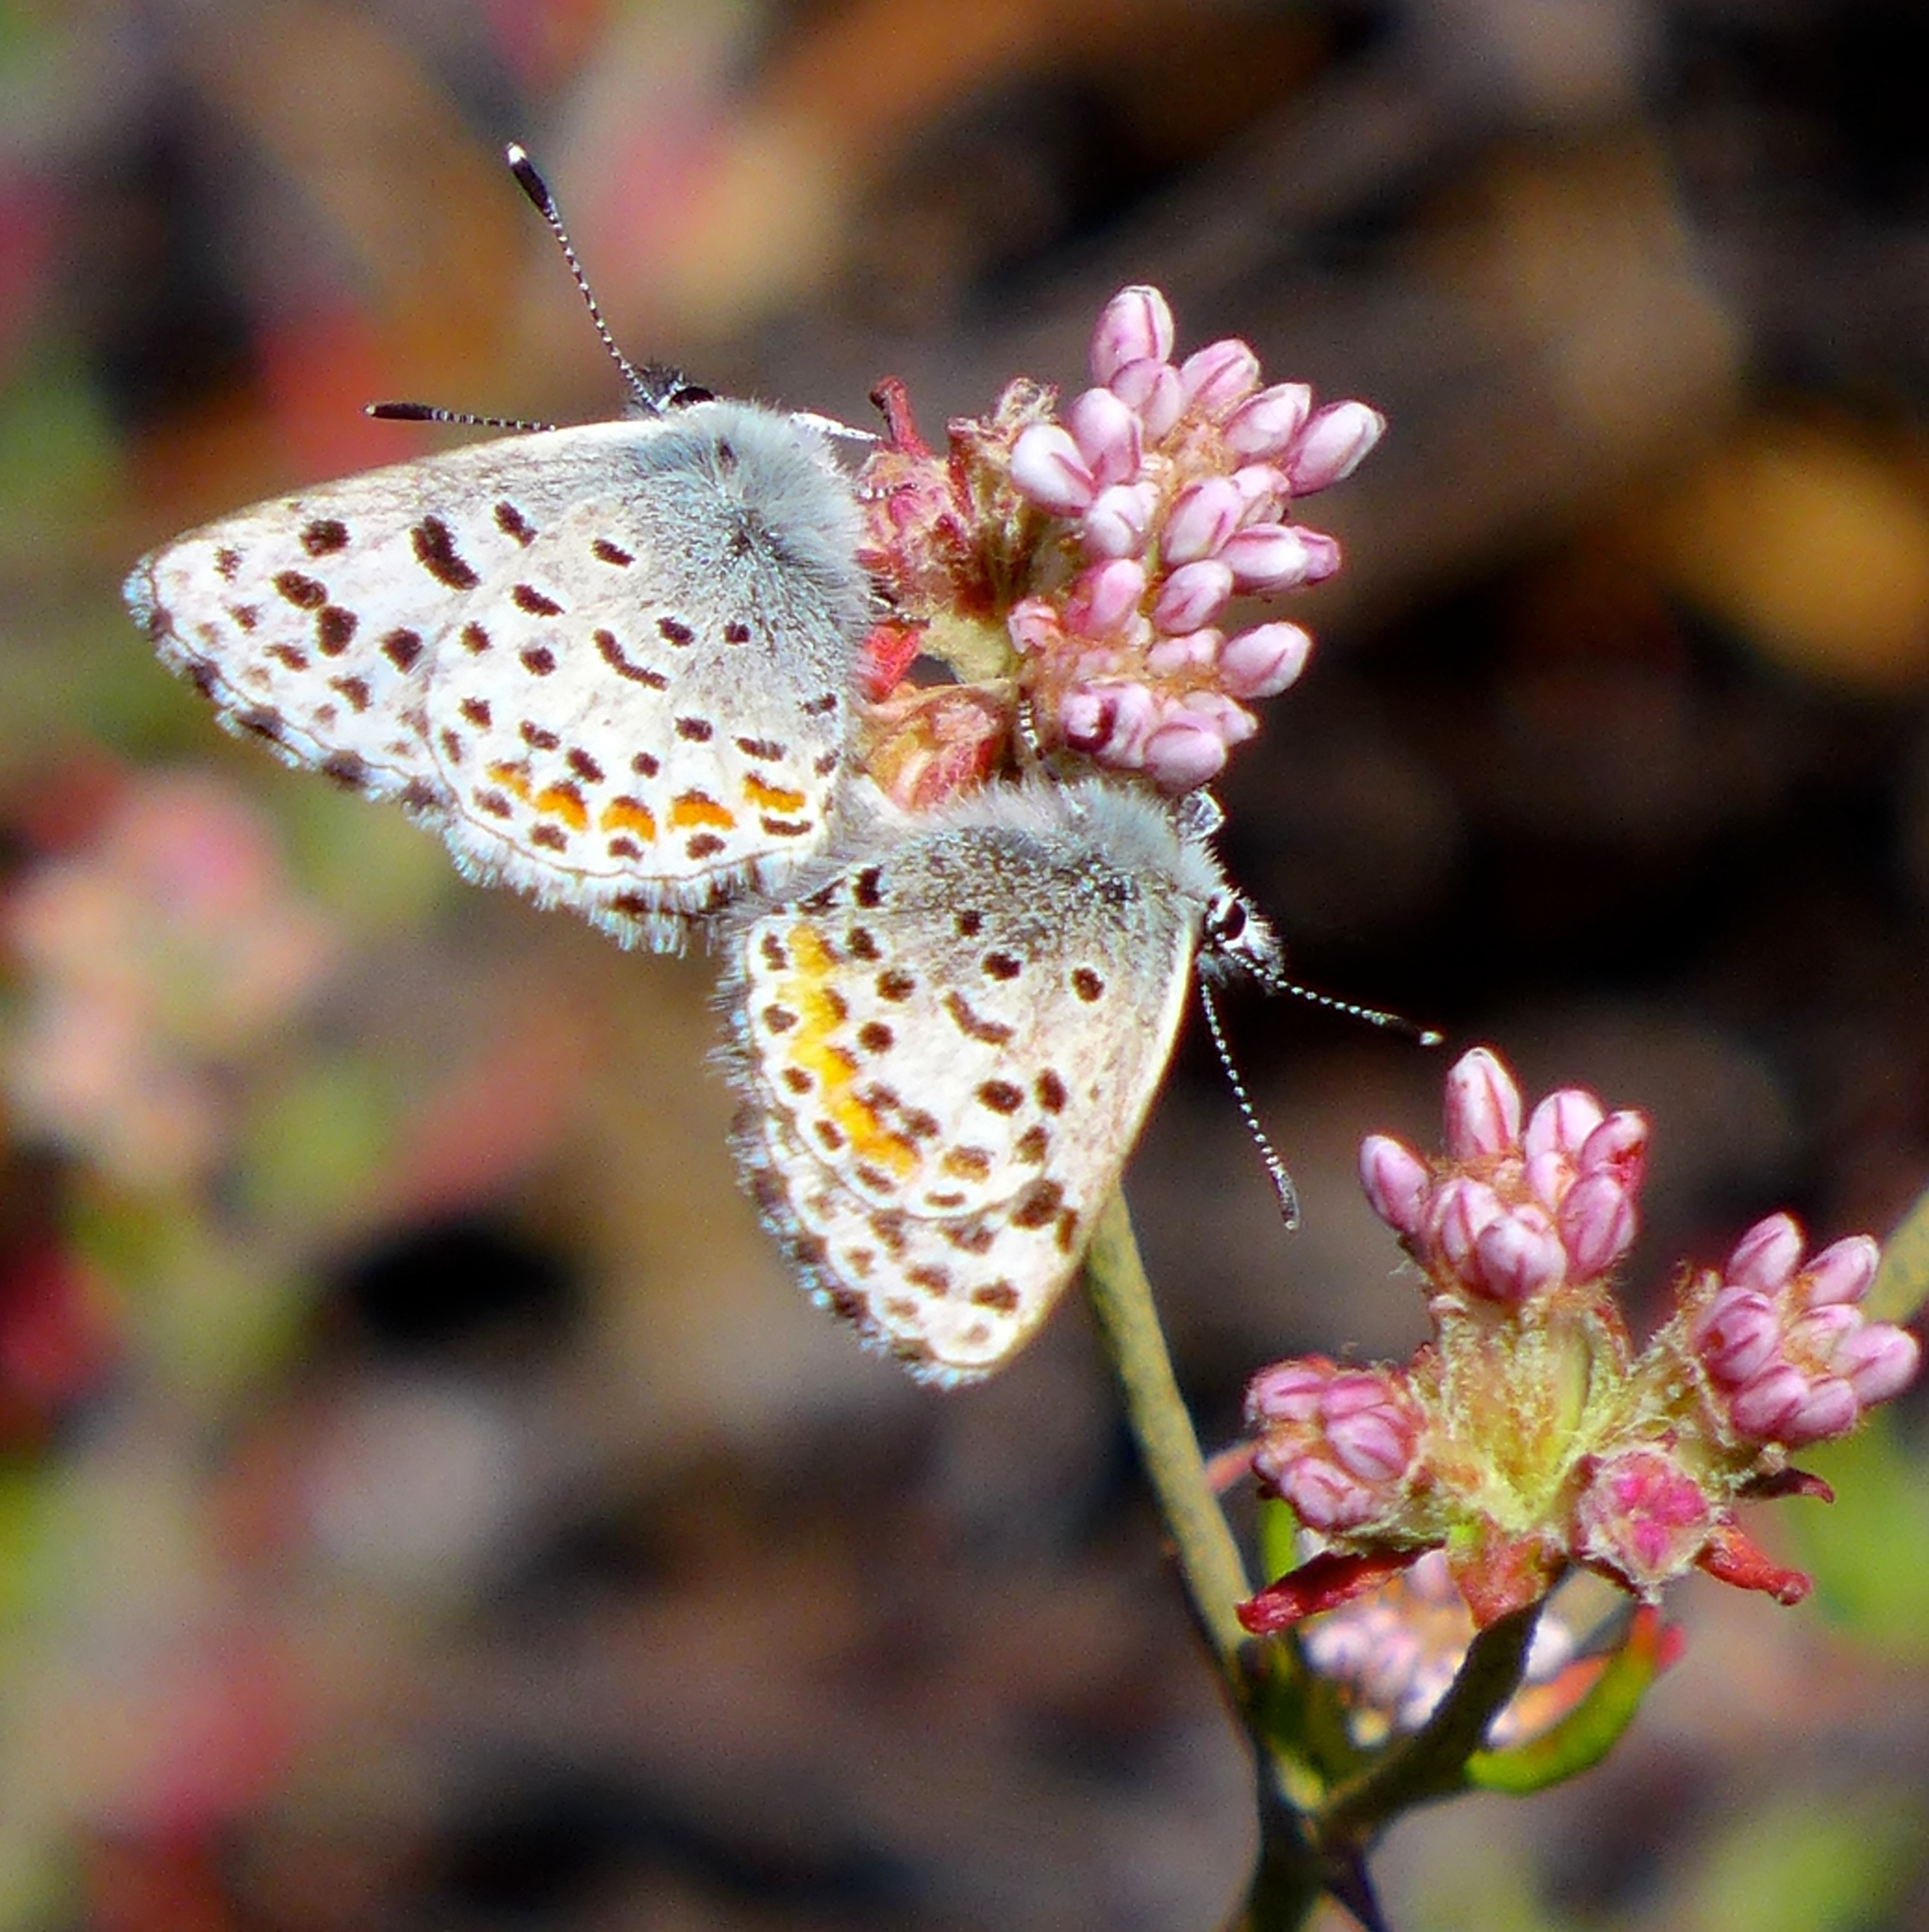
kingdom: Animalia
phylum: Arthropoda
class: Insecta
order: Lepidoptera
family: Lycaenidae
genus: Euphilotes
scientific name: Euphilotes enoptes
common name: Dotted blue
